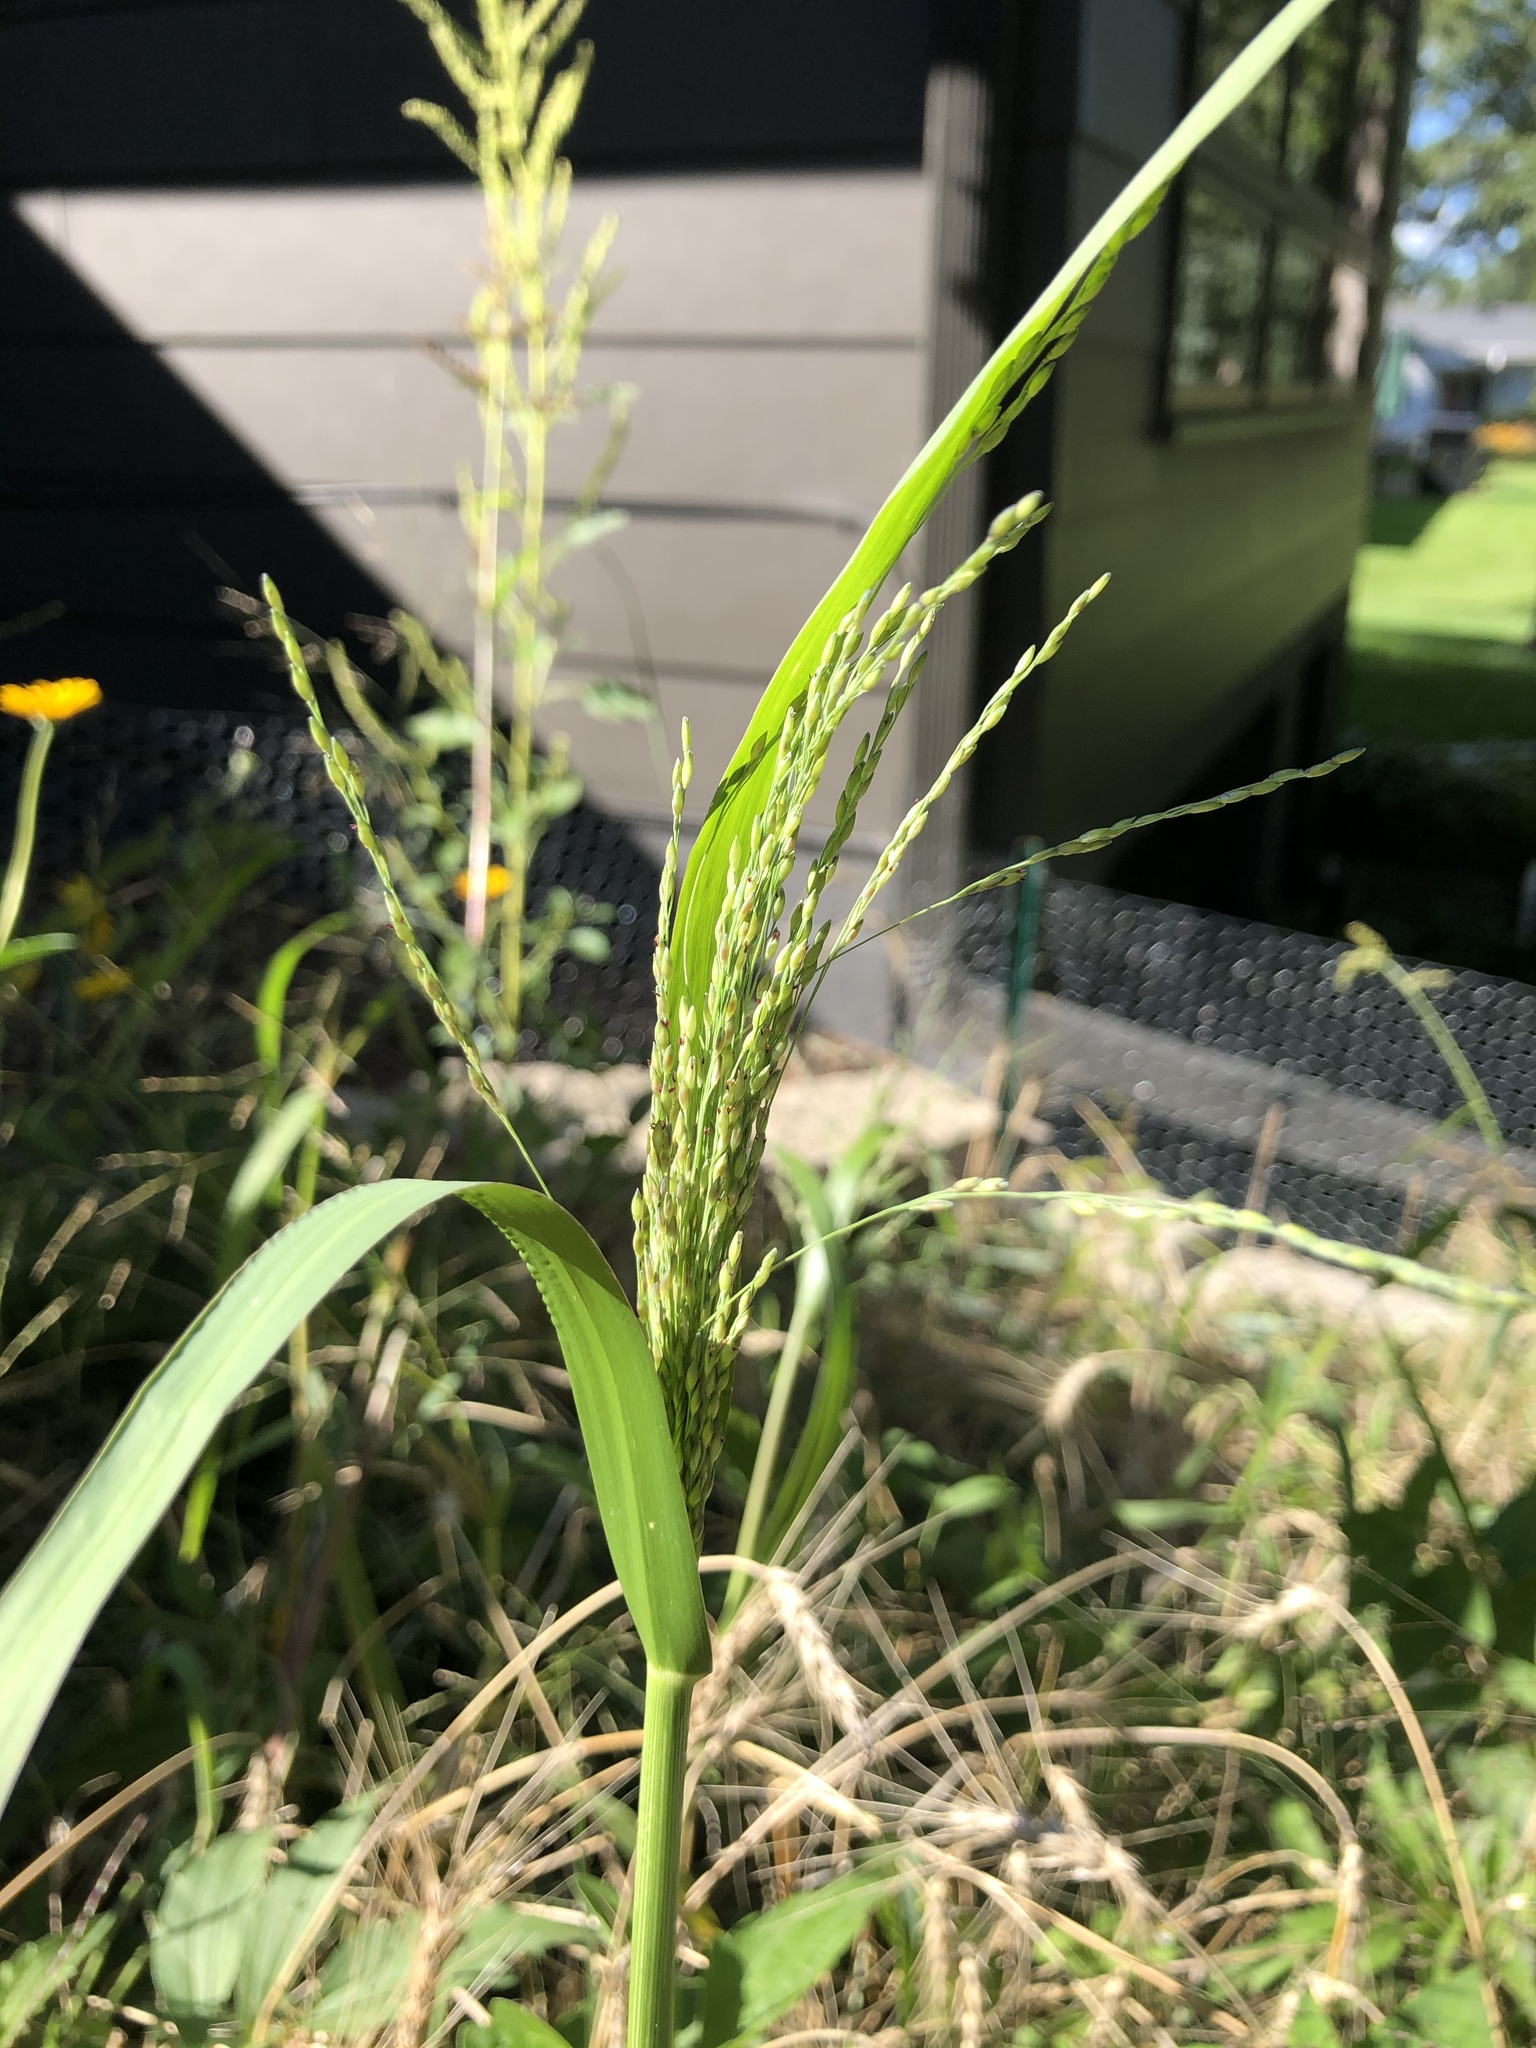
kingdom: Plantae
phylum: Tracheophyta
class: Liliopsida
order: Poales
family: Poaceae
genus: Panicum
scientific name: Panicum dichotomiflorum
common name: Autumn millet
